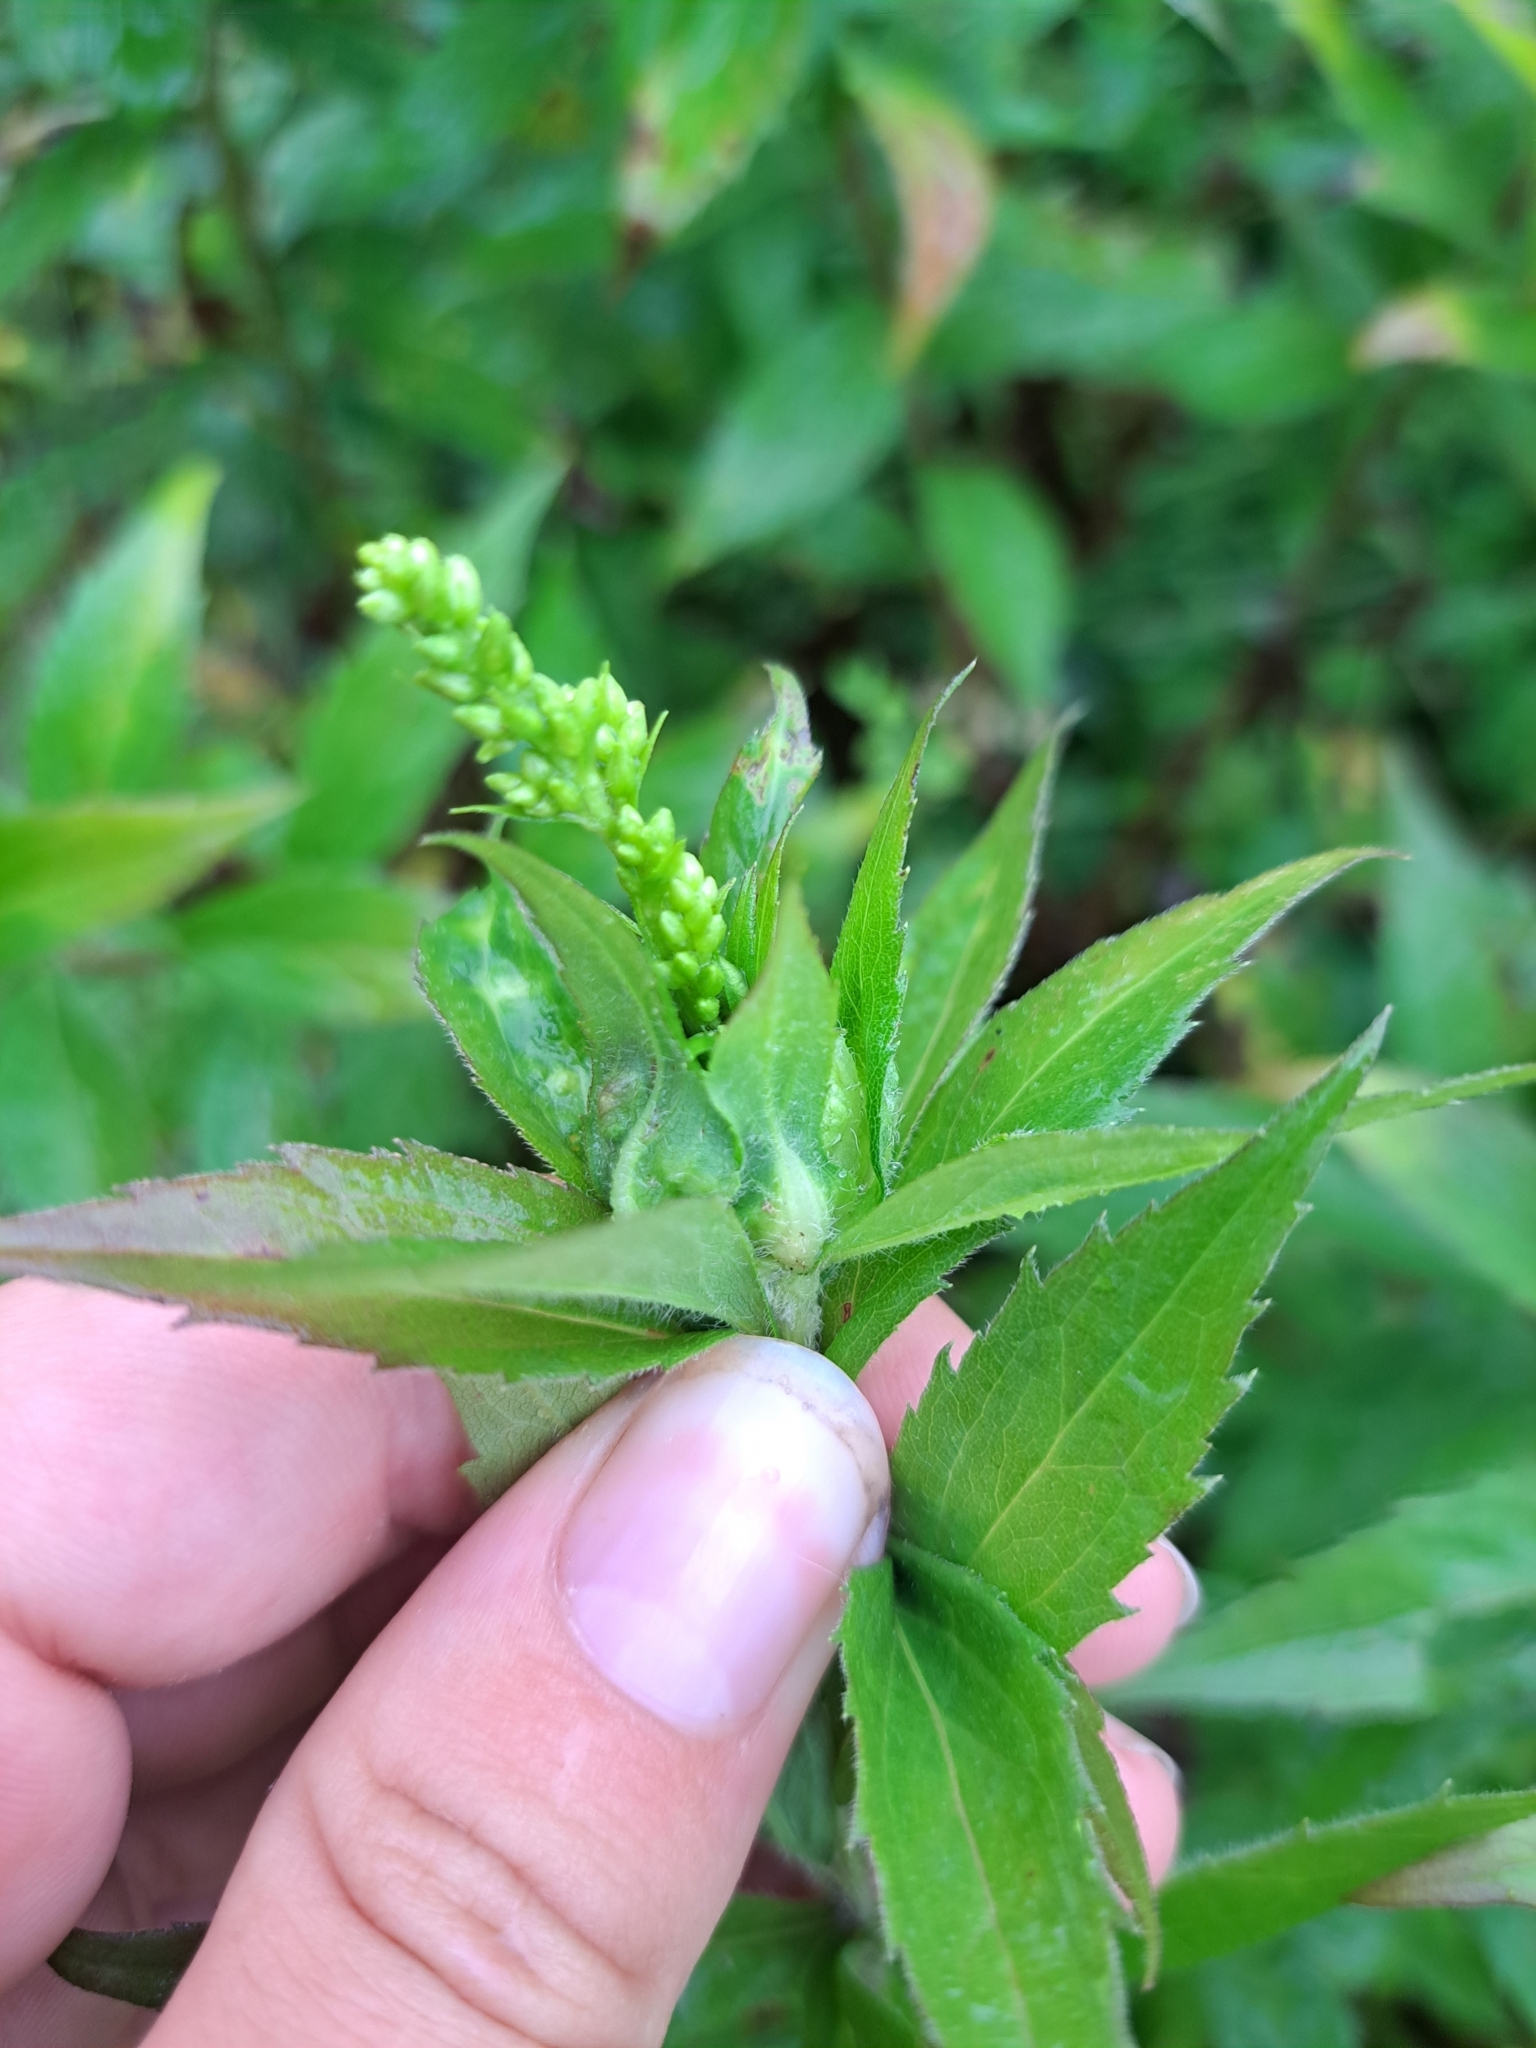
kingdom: Animalia
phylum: Arthropoda
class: Insecta
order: Diptera
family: Cecidomyiidae
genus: Dasineura
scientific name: Dasineura folliculi
